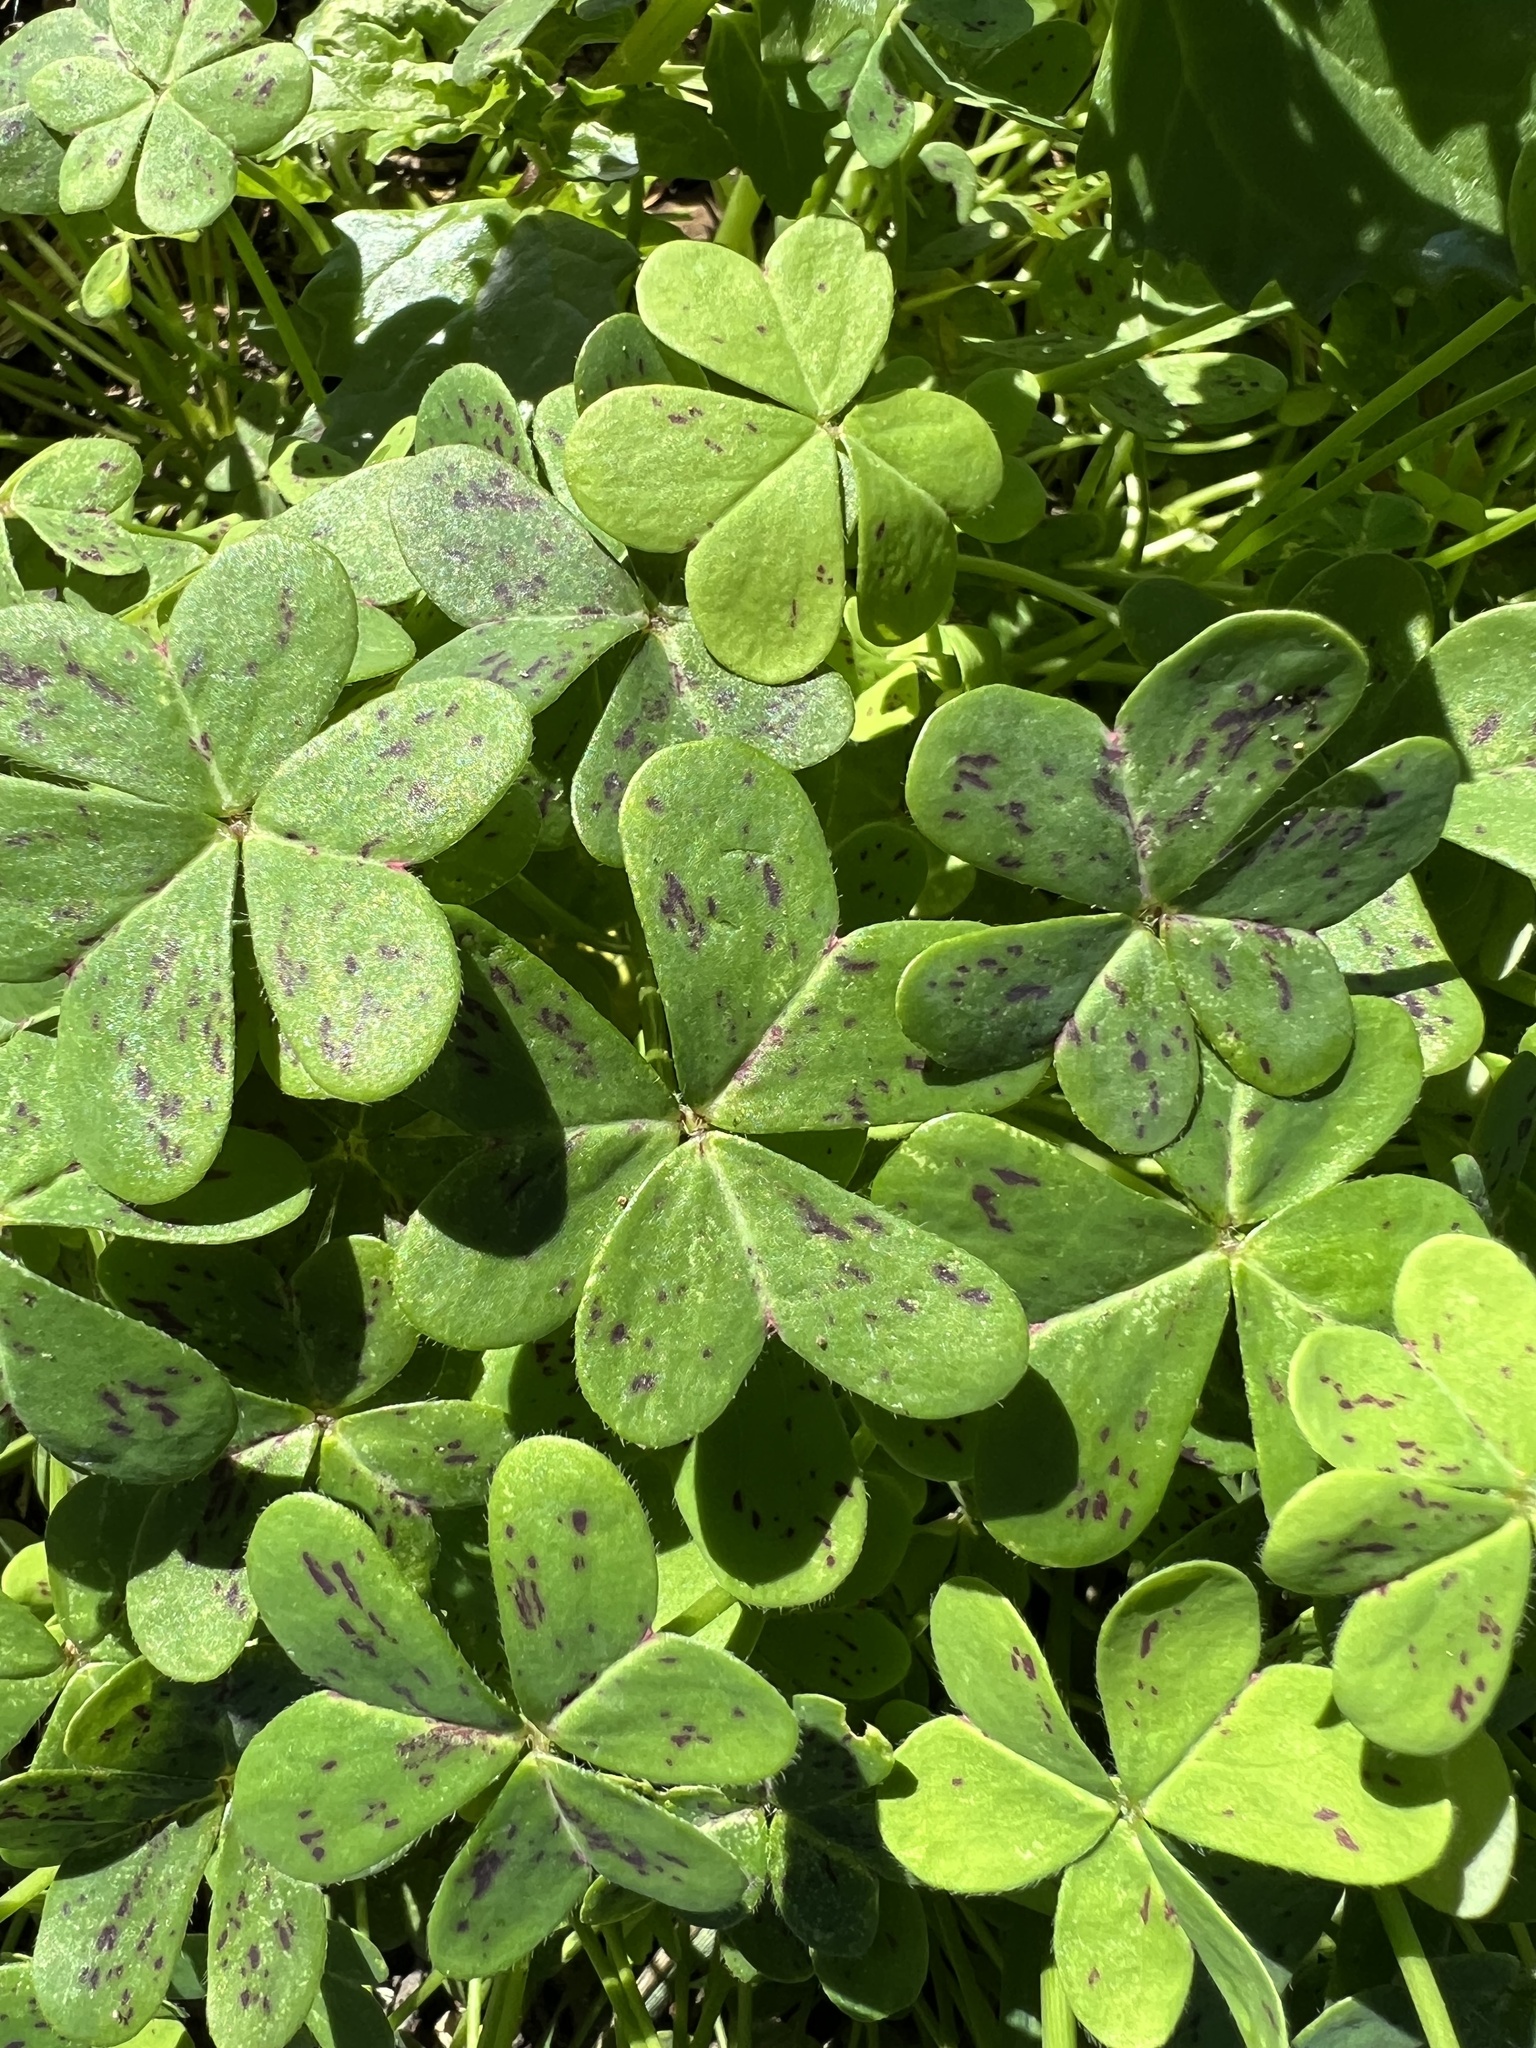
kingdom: Plantae
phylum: Tracheophyta
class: Magnoliopsida
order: Oxalidales
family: Oxalidaceae
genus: Oxalis
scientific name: Oxalis pes-caprae
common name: Bermuda-buttercup
